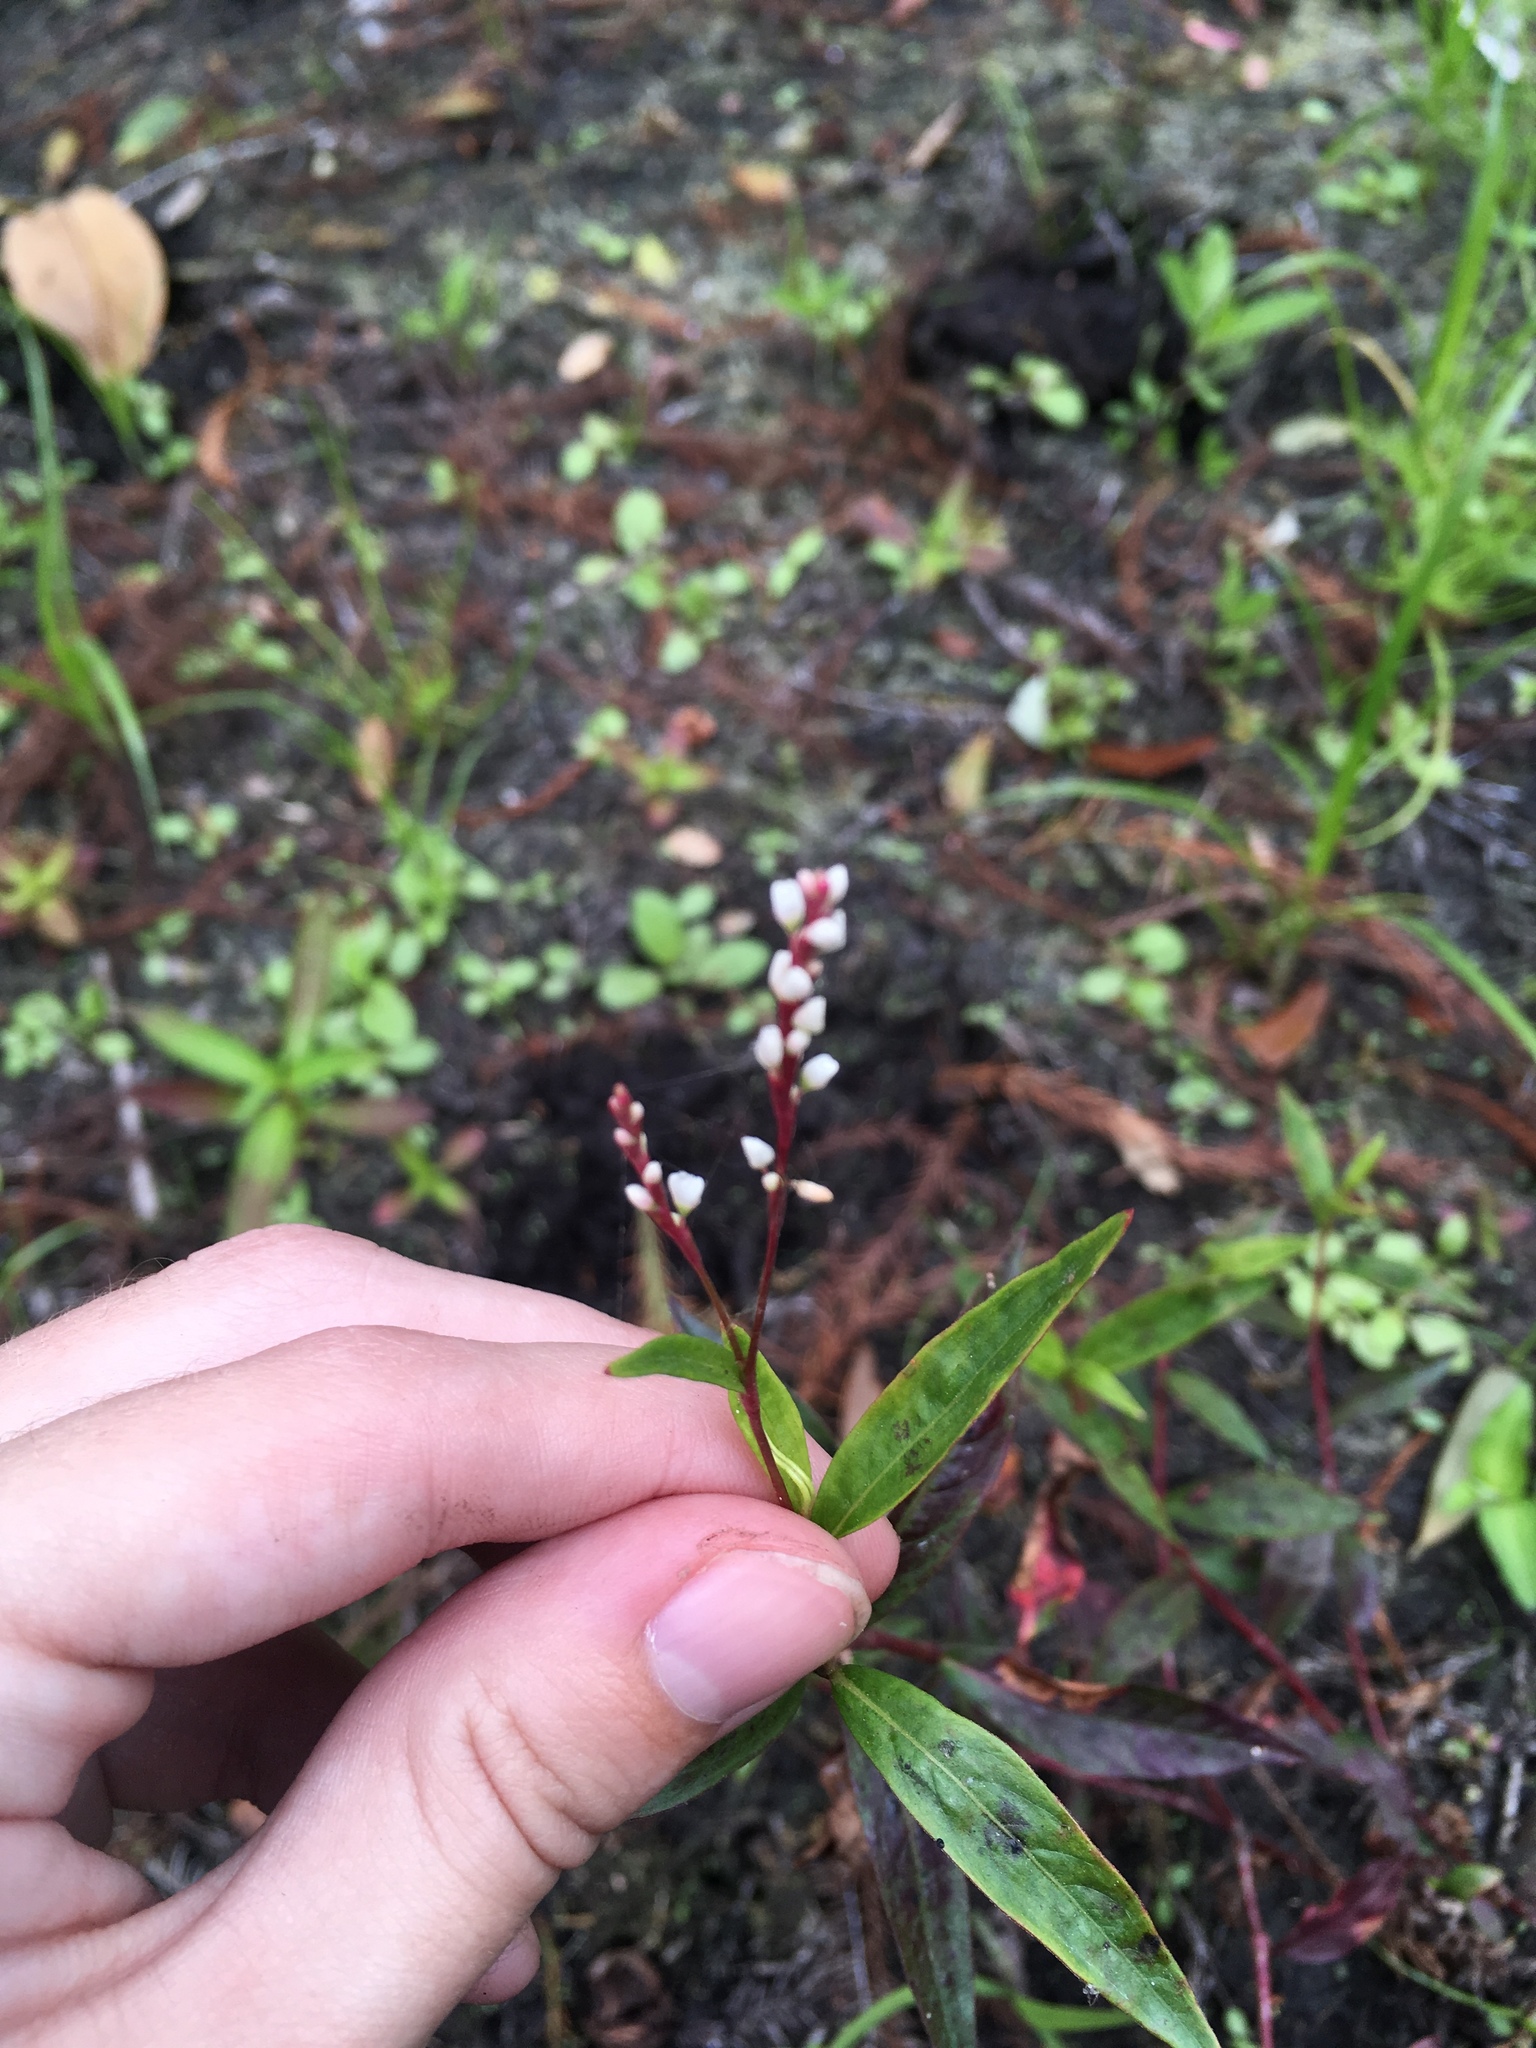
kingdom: Plantae
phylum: Tracheophyta
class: Magnoliopsida
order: Caryophyllales
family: Polygonaceae
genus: Persicaria
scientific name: Persicaria hydropiperoides
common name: Swamp smartweed
